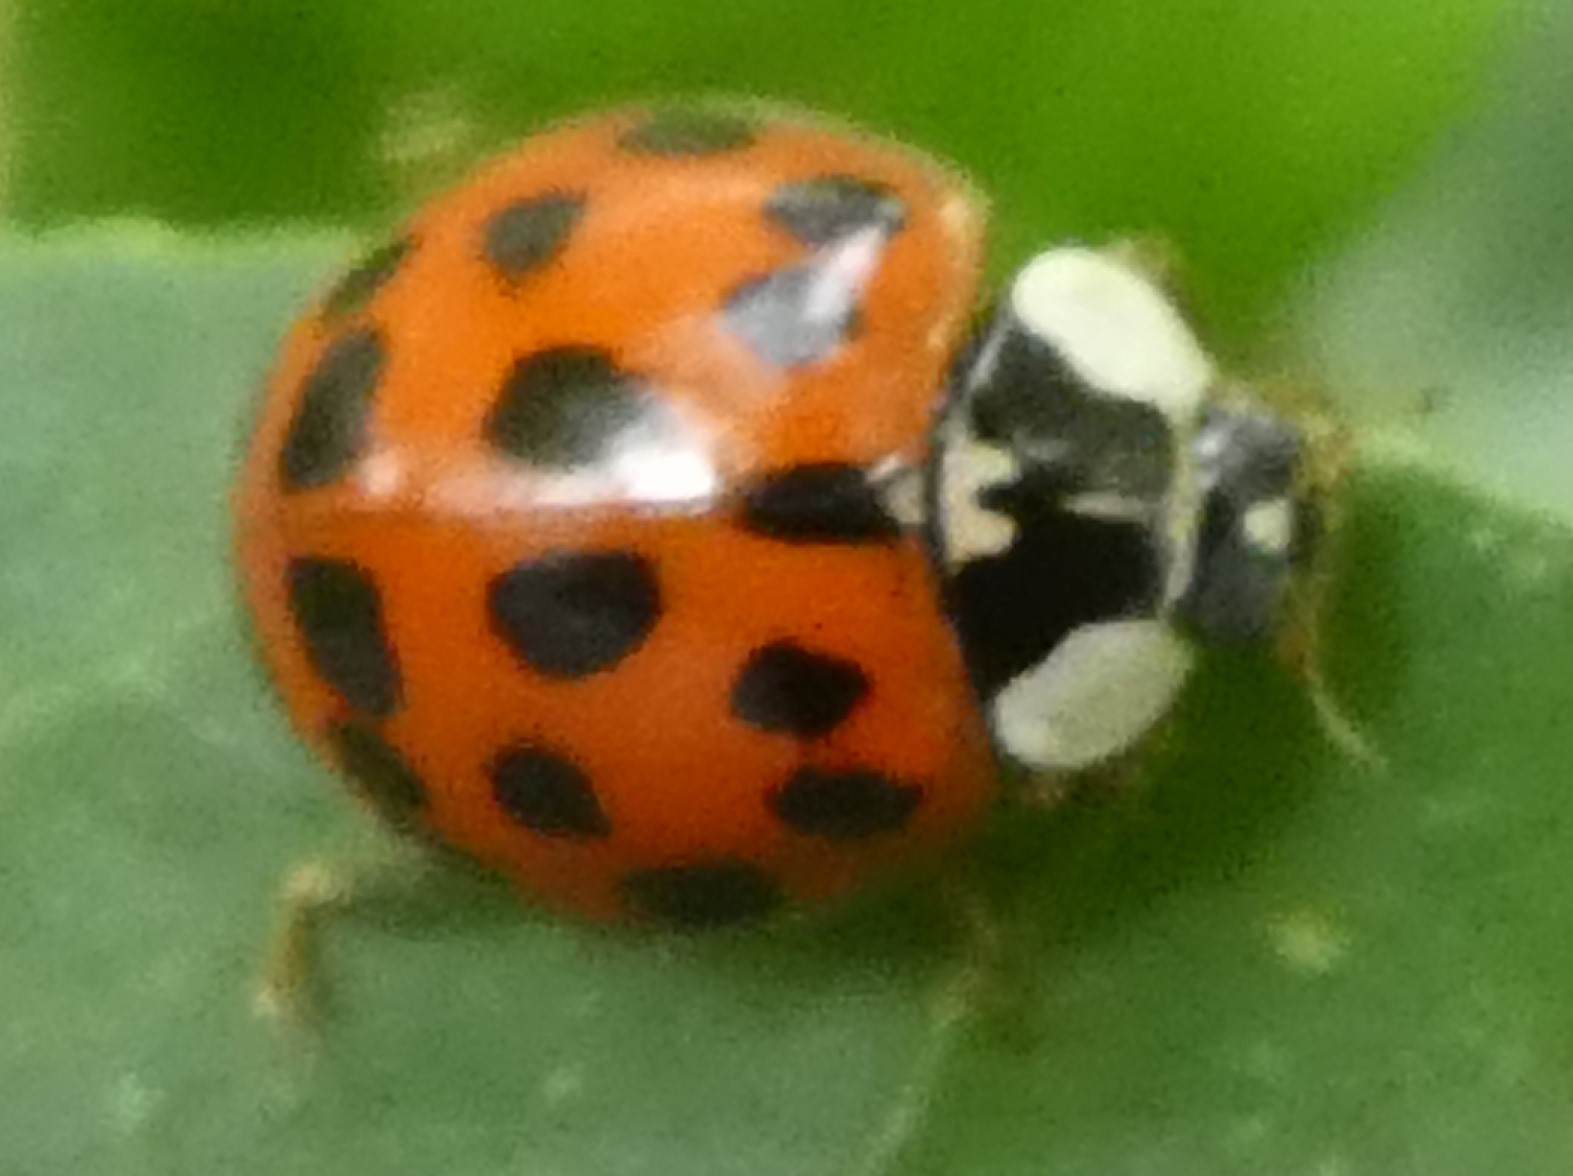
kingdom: Animalia
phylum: Arthropoda
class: Insecta
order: Coleoptera
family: Coccinellidae
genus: Harmonia
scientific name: Harmonia axyridis
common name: Harlequin ladybird
